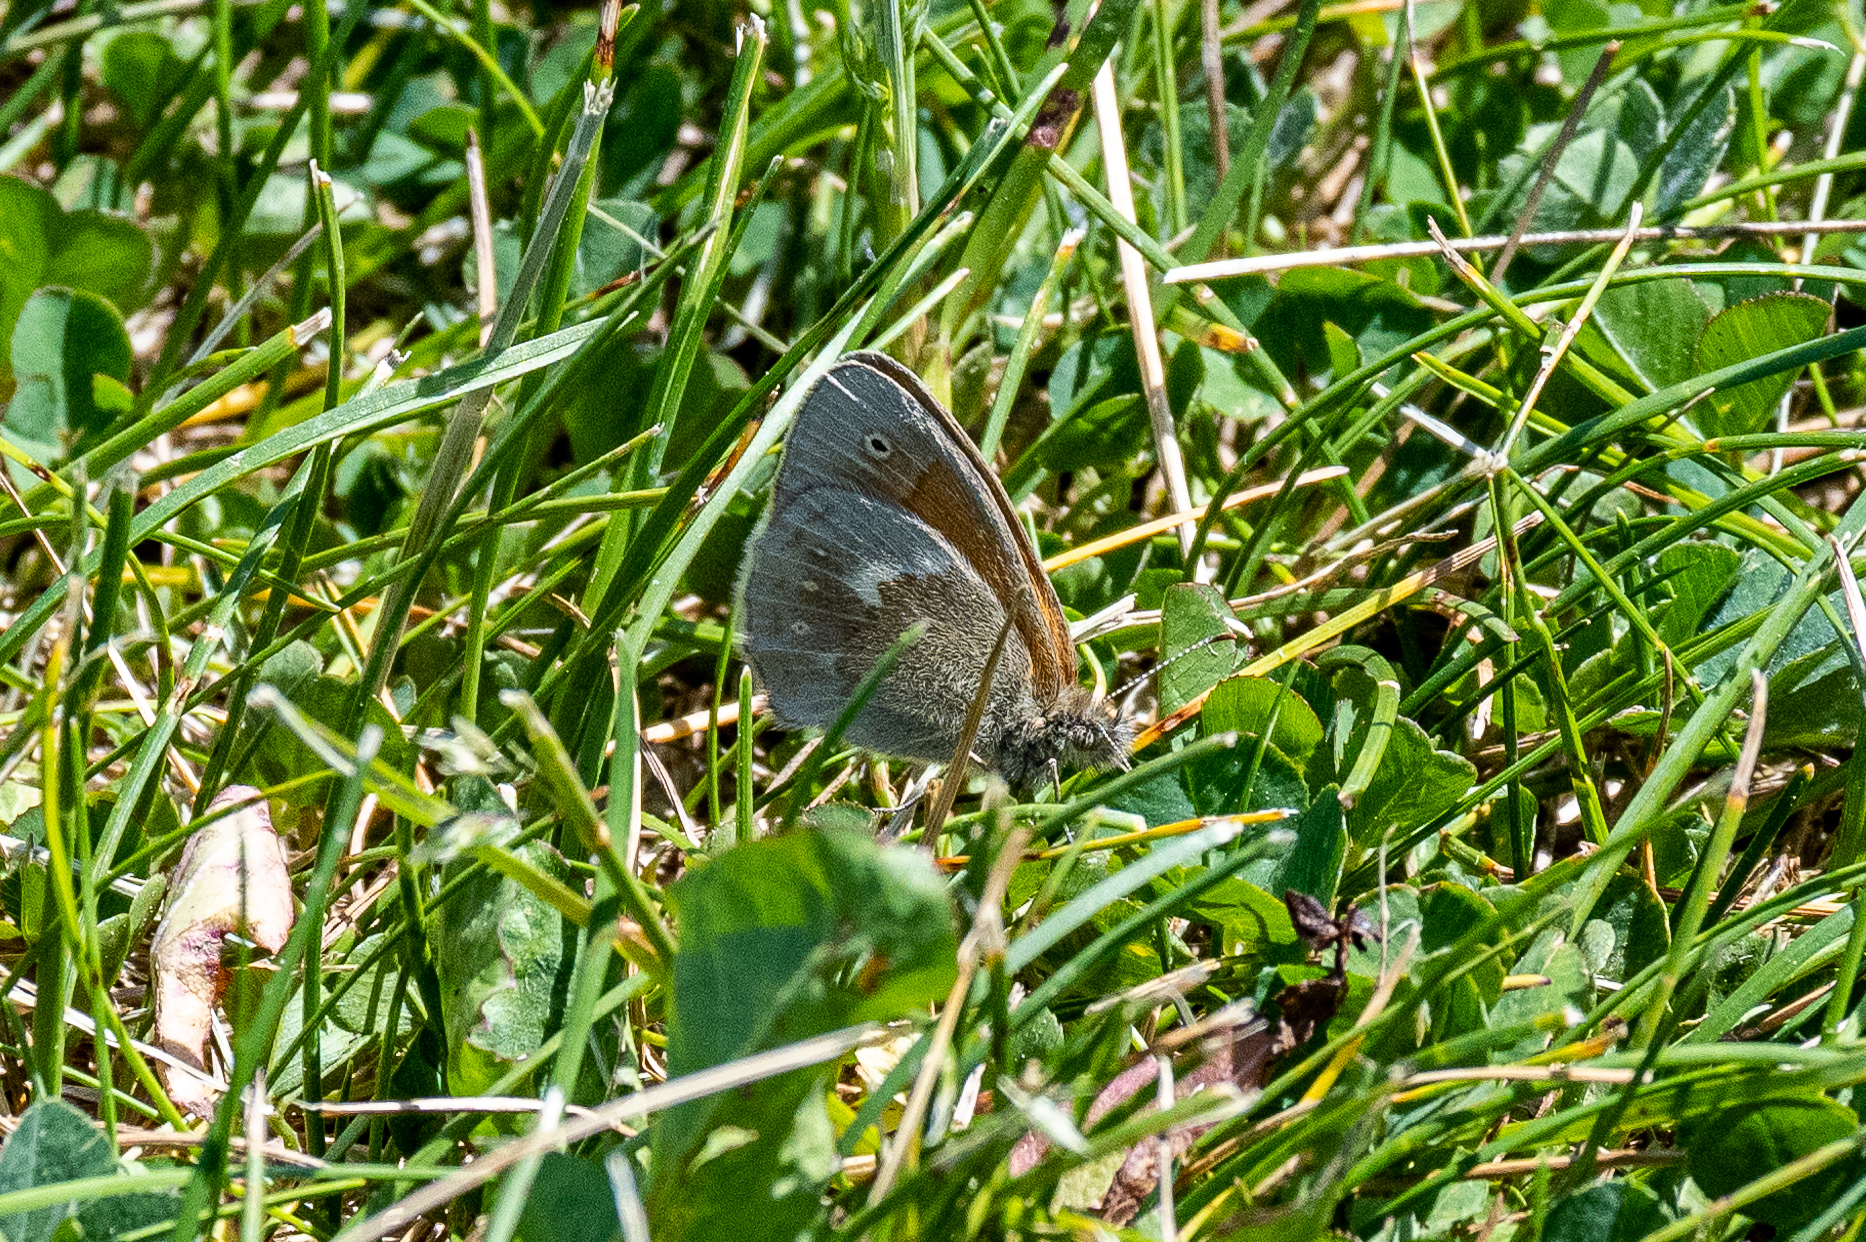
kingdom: Animalia
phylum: Arthropoda
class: Insecta
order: Lepidoptera
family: Nymphalidae
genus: Coenonympha
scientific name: Coenonympha california
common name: Common ringlet
